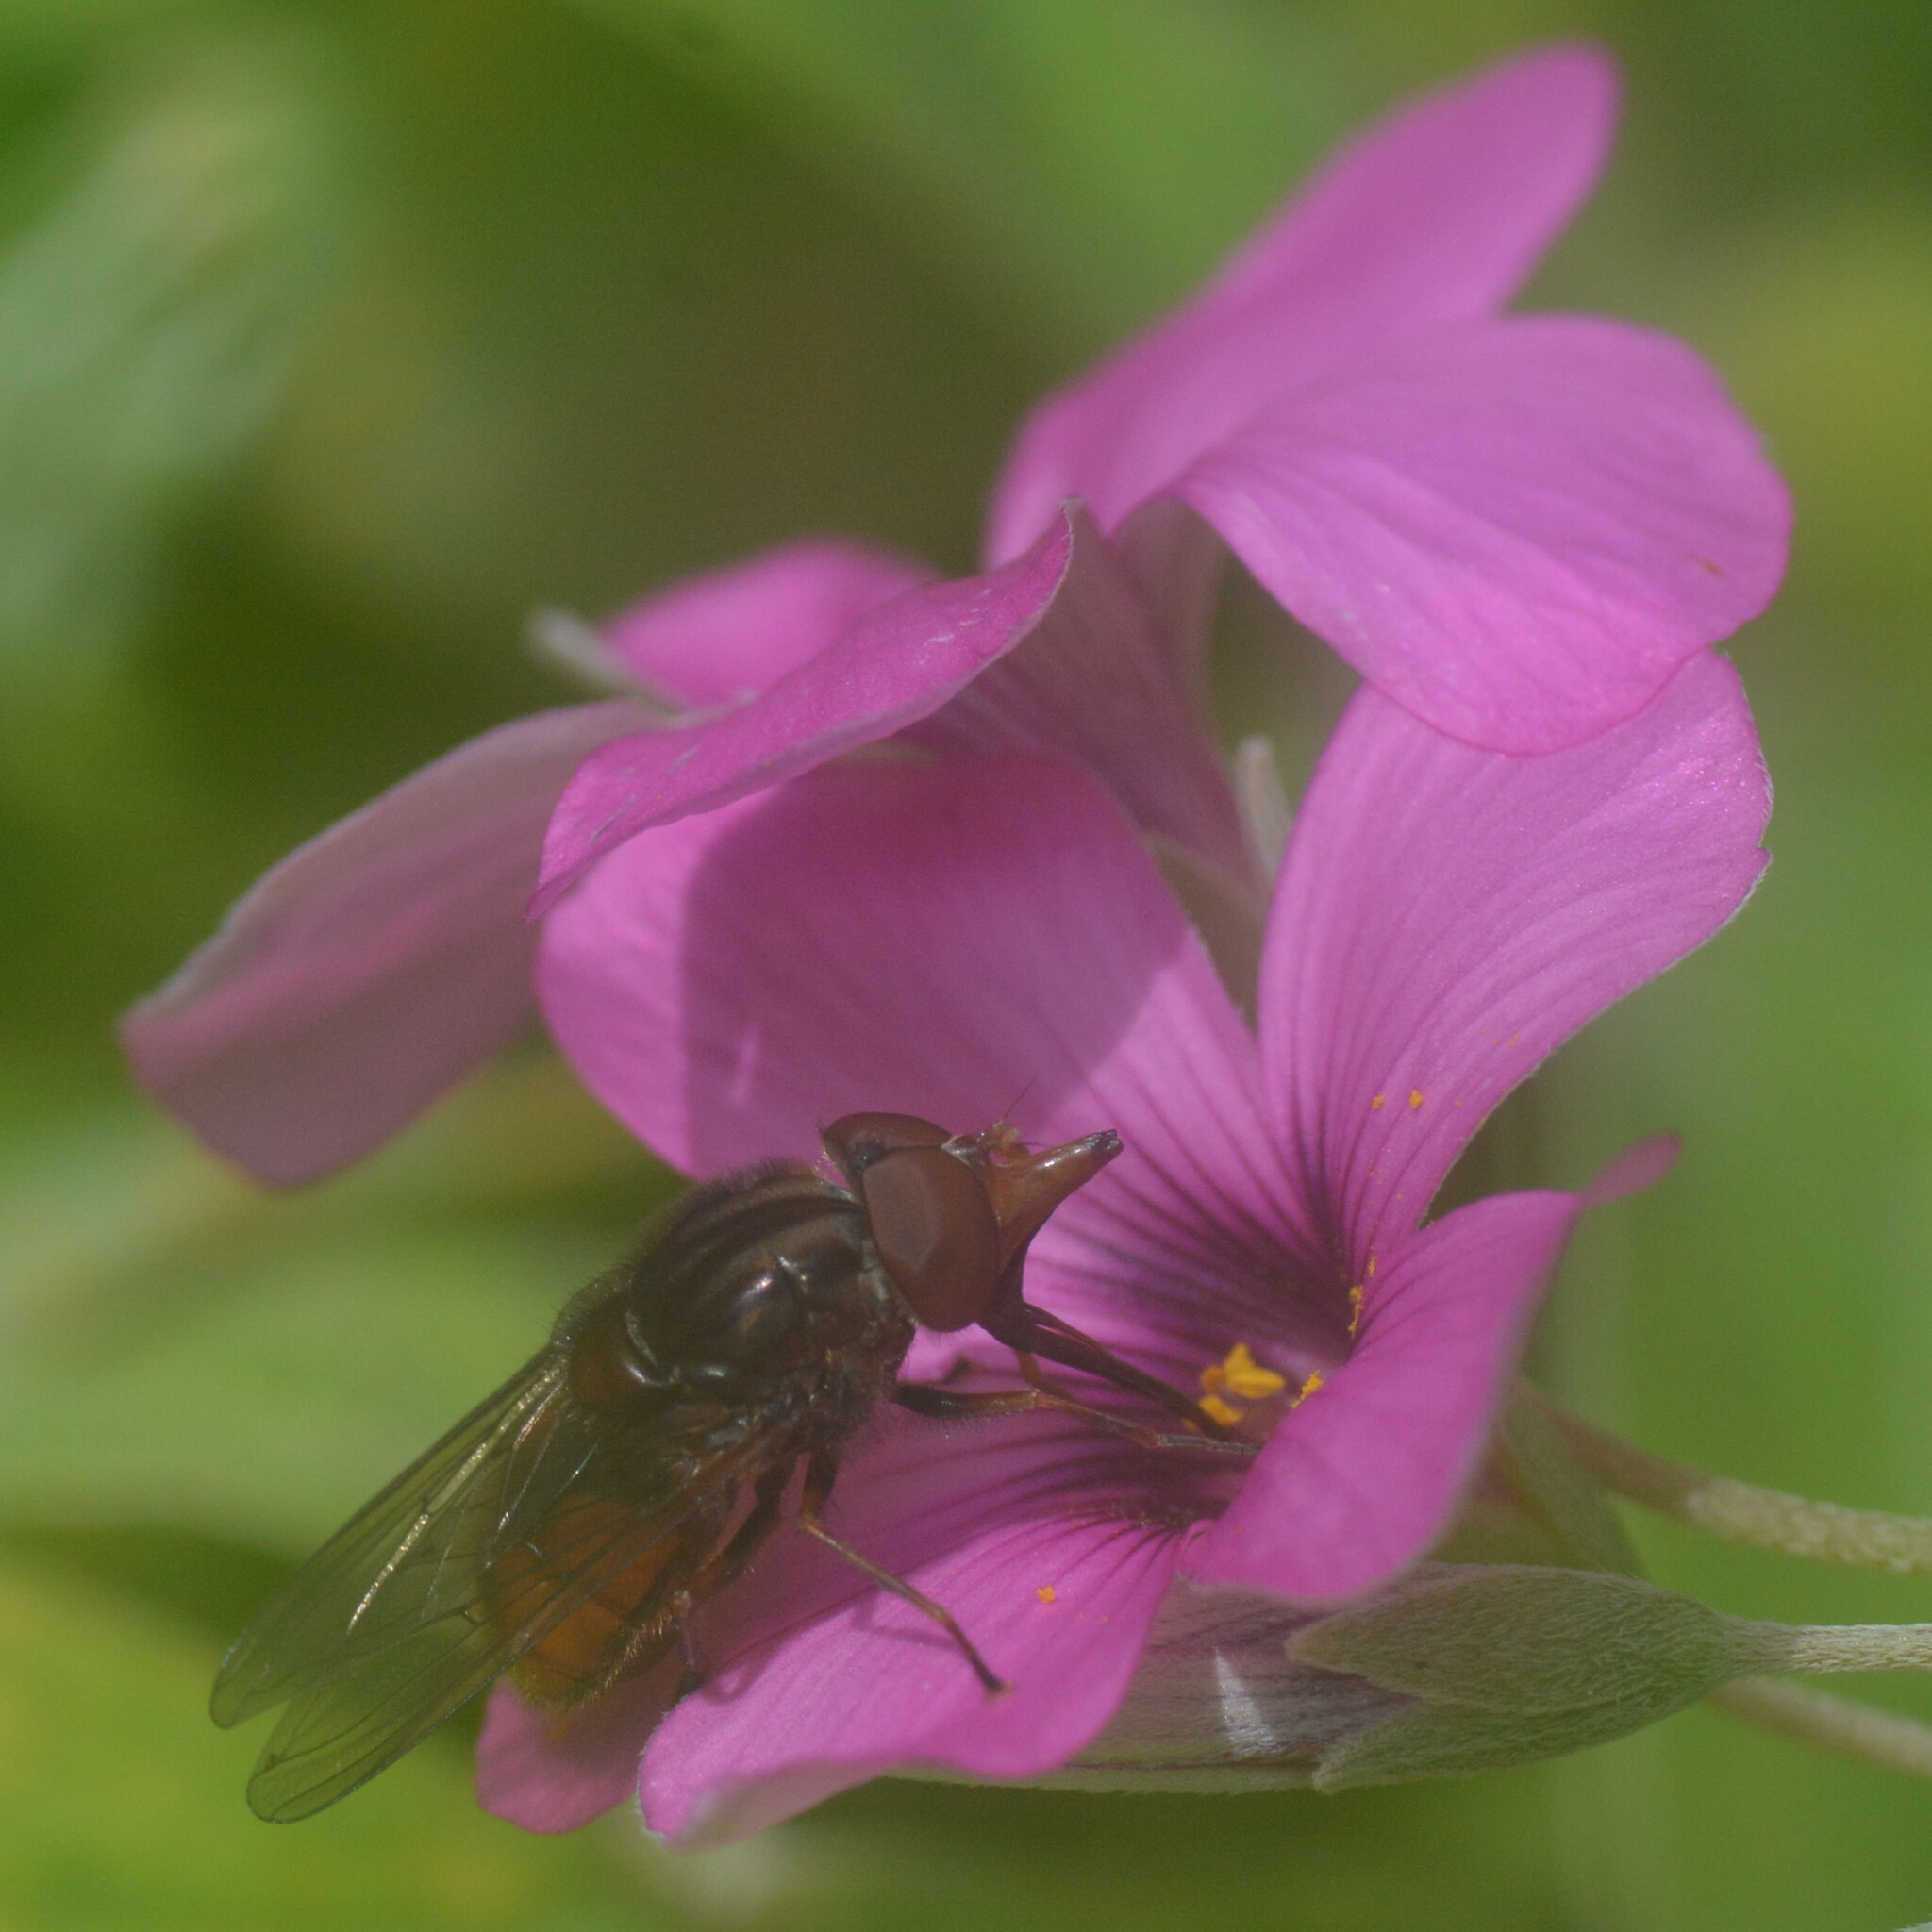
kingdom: Animalia
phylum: Arthropoda
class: Insecta
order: Diptera
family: Syrphidae
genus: Rhingia
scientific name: Rhingia campestris
